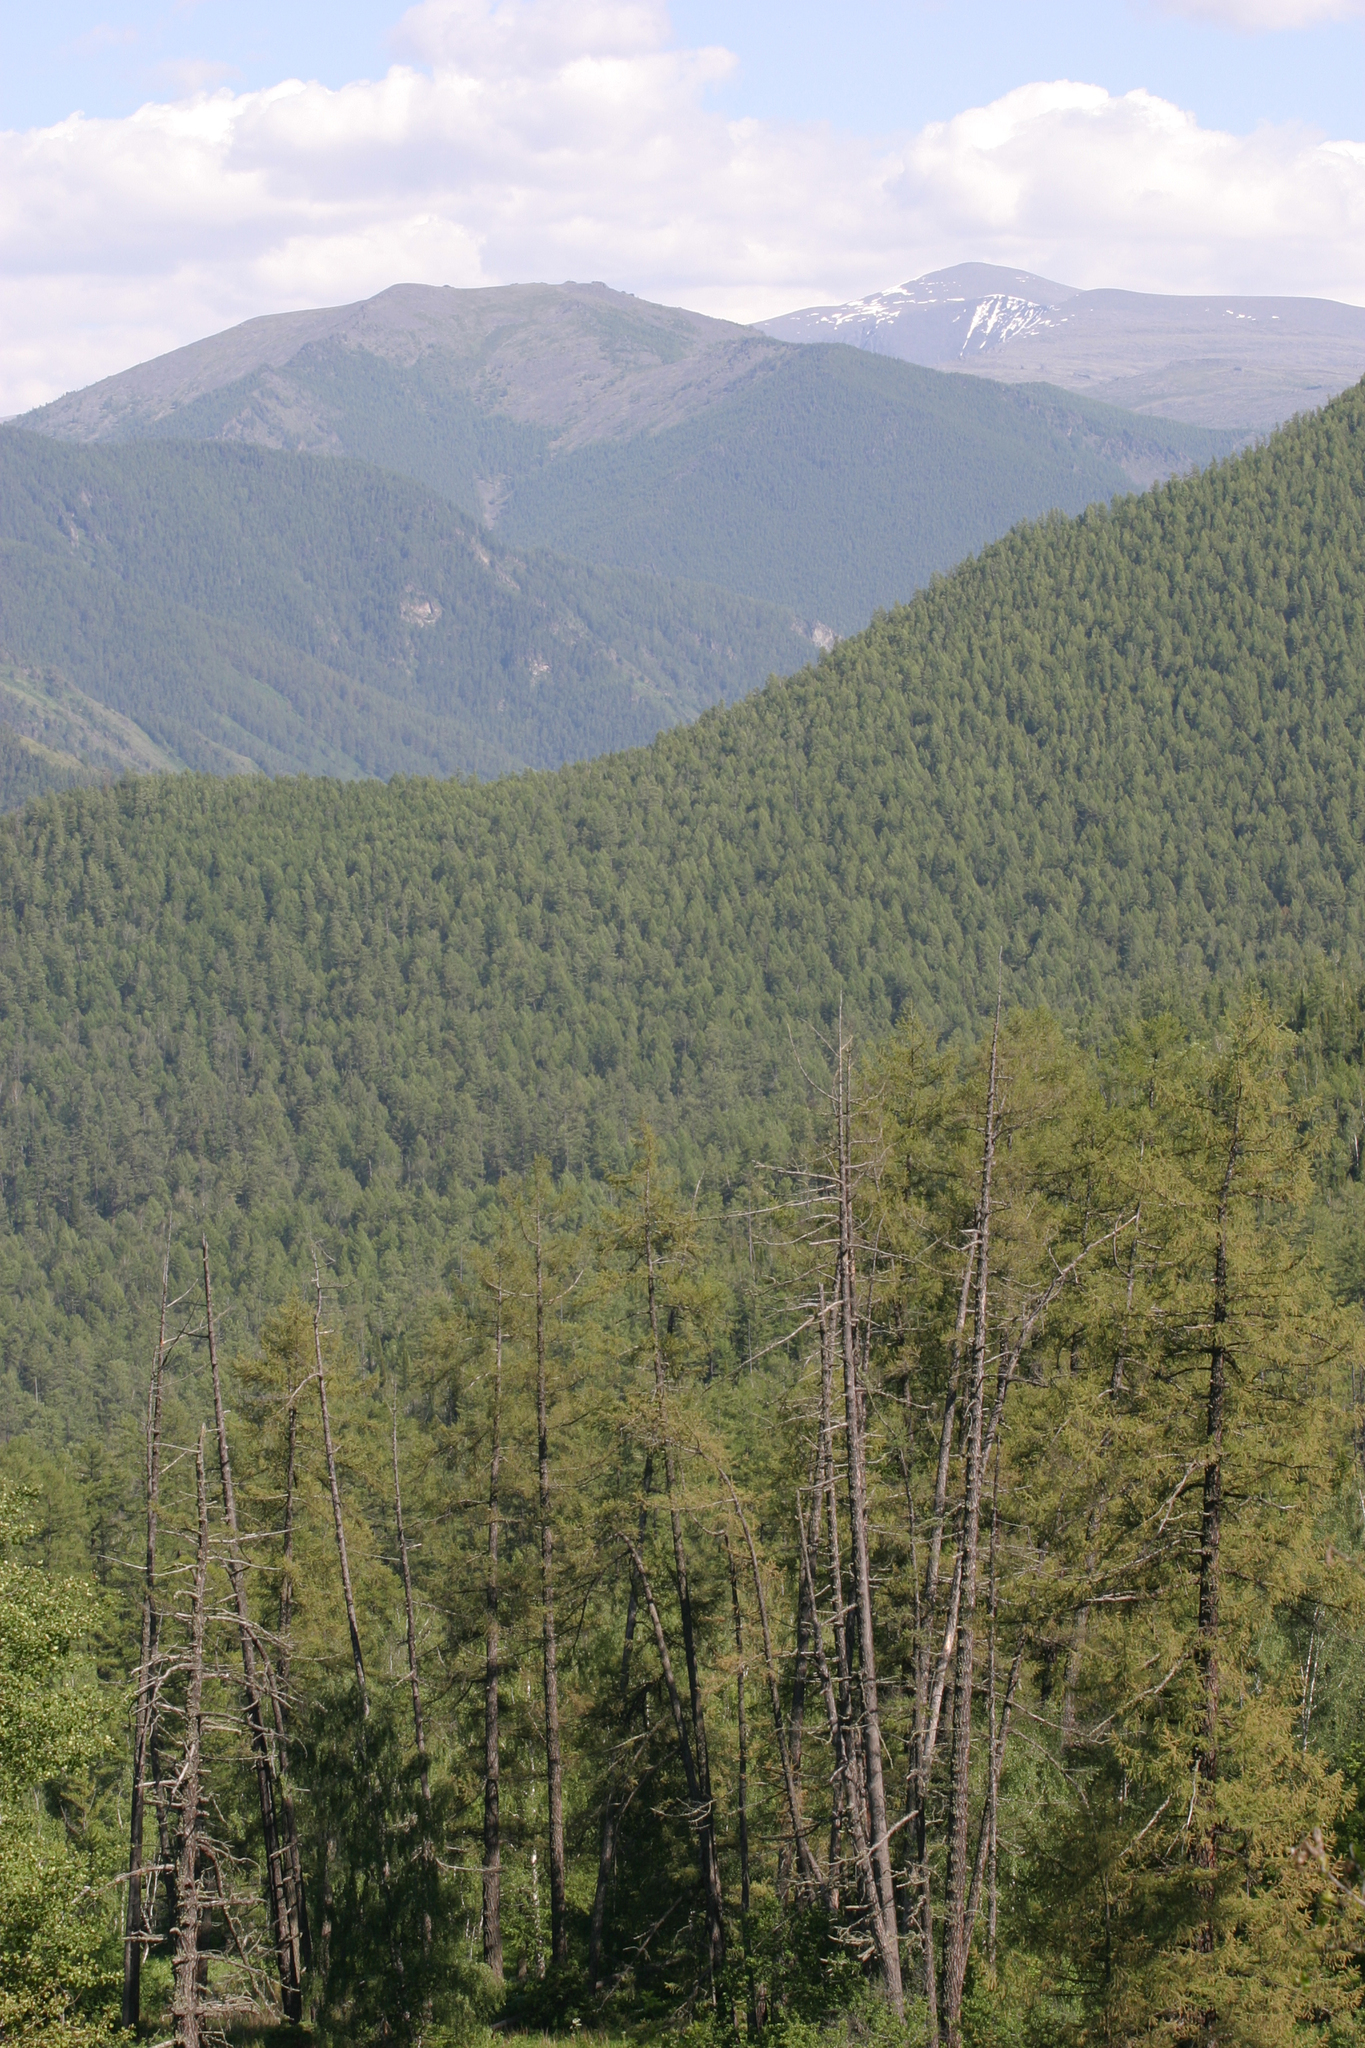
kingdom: Plantae
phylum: Tracheophyta
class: Pinopsida
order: Pinales
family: Pinaceae
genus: Larix
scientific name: Larix sibirica
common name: Siberian larch
